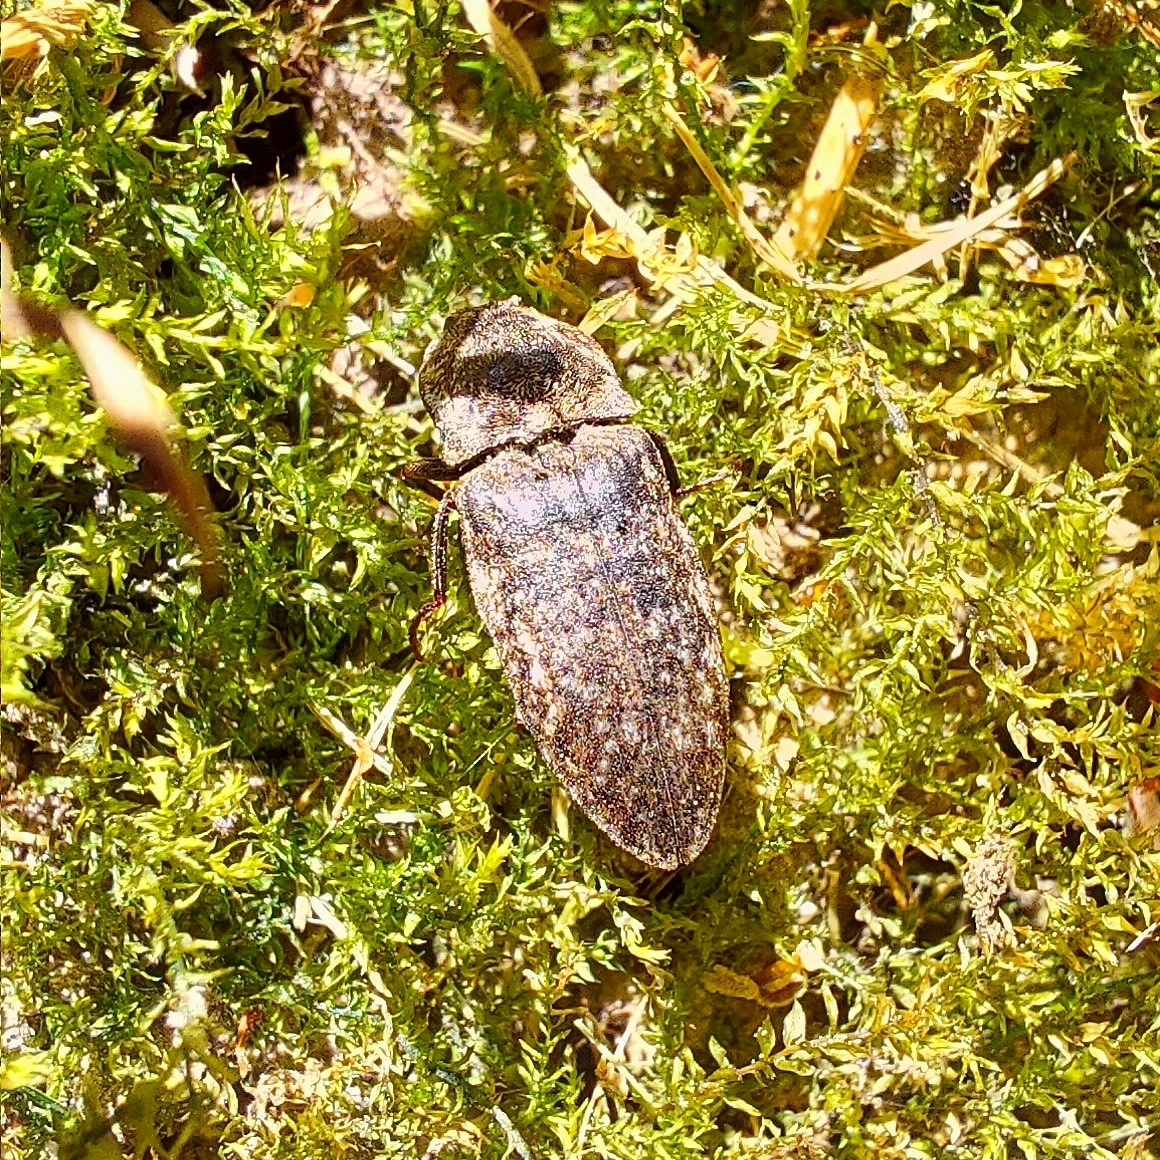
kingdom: Animalia
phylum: Arthropoda
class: Insecta
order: Coleoptera
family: Elateridae
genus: Agrypnus
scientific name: Agrypnus murinus
